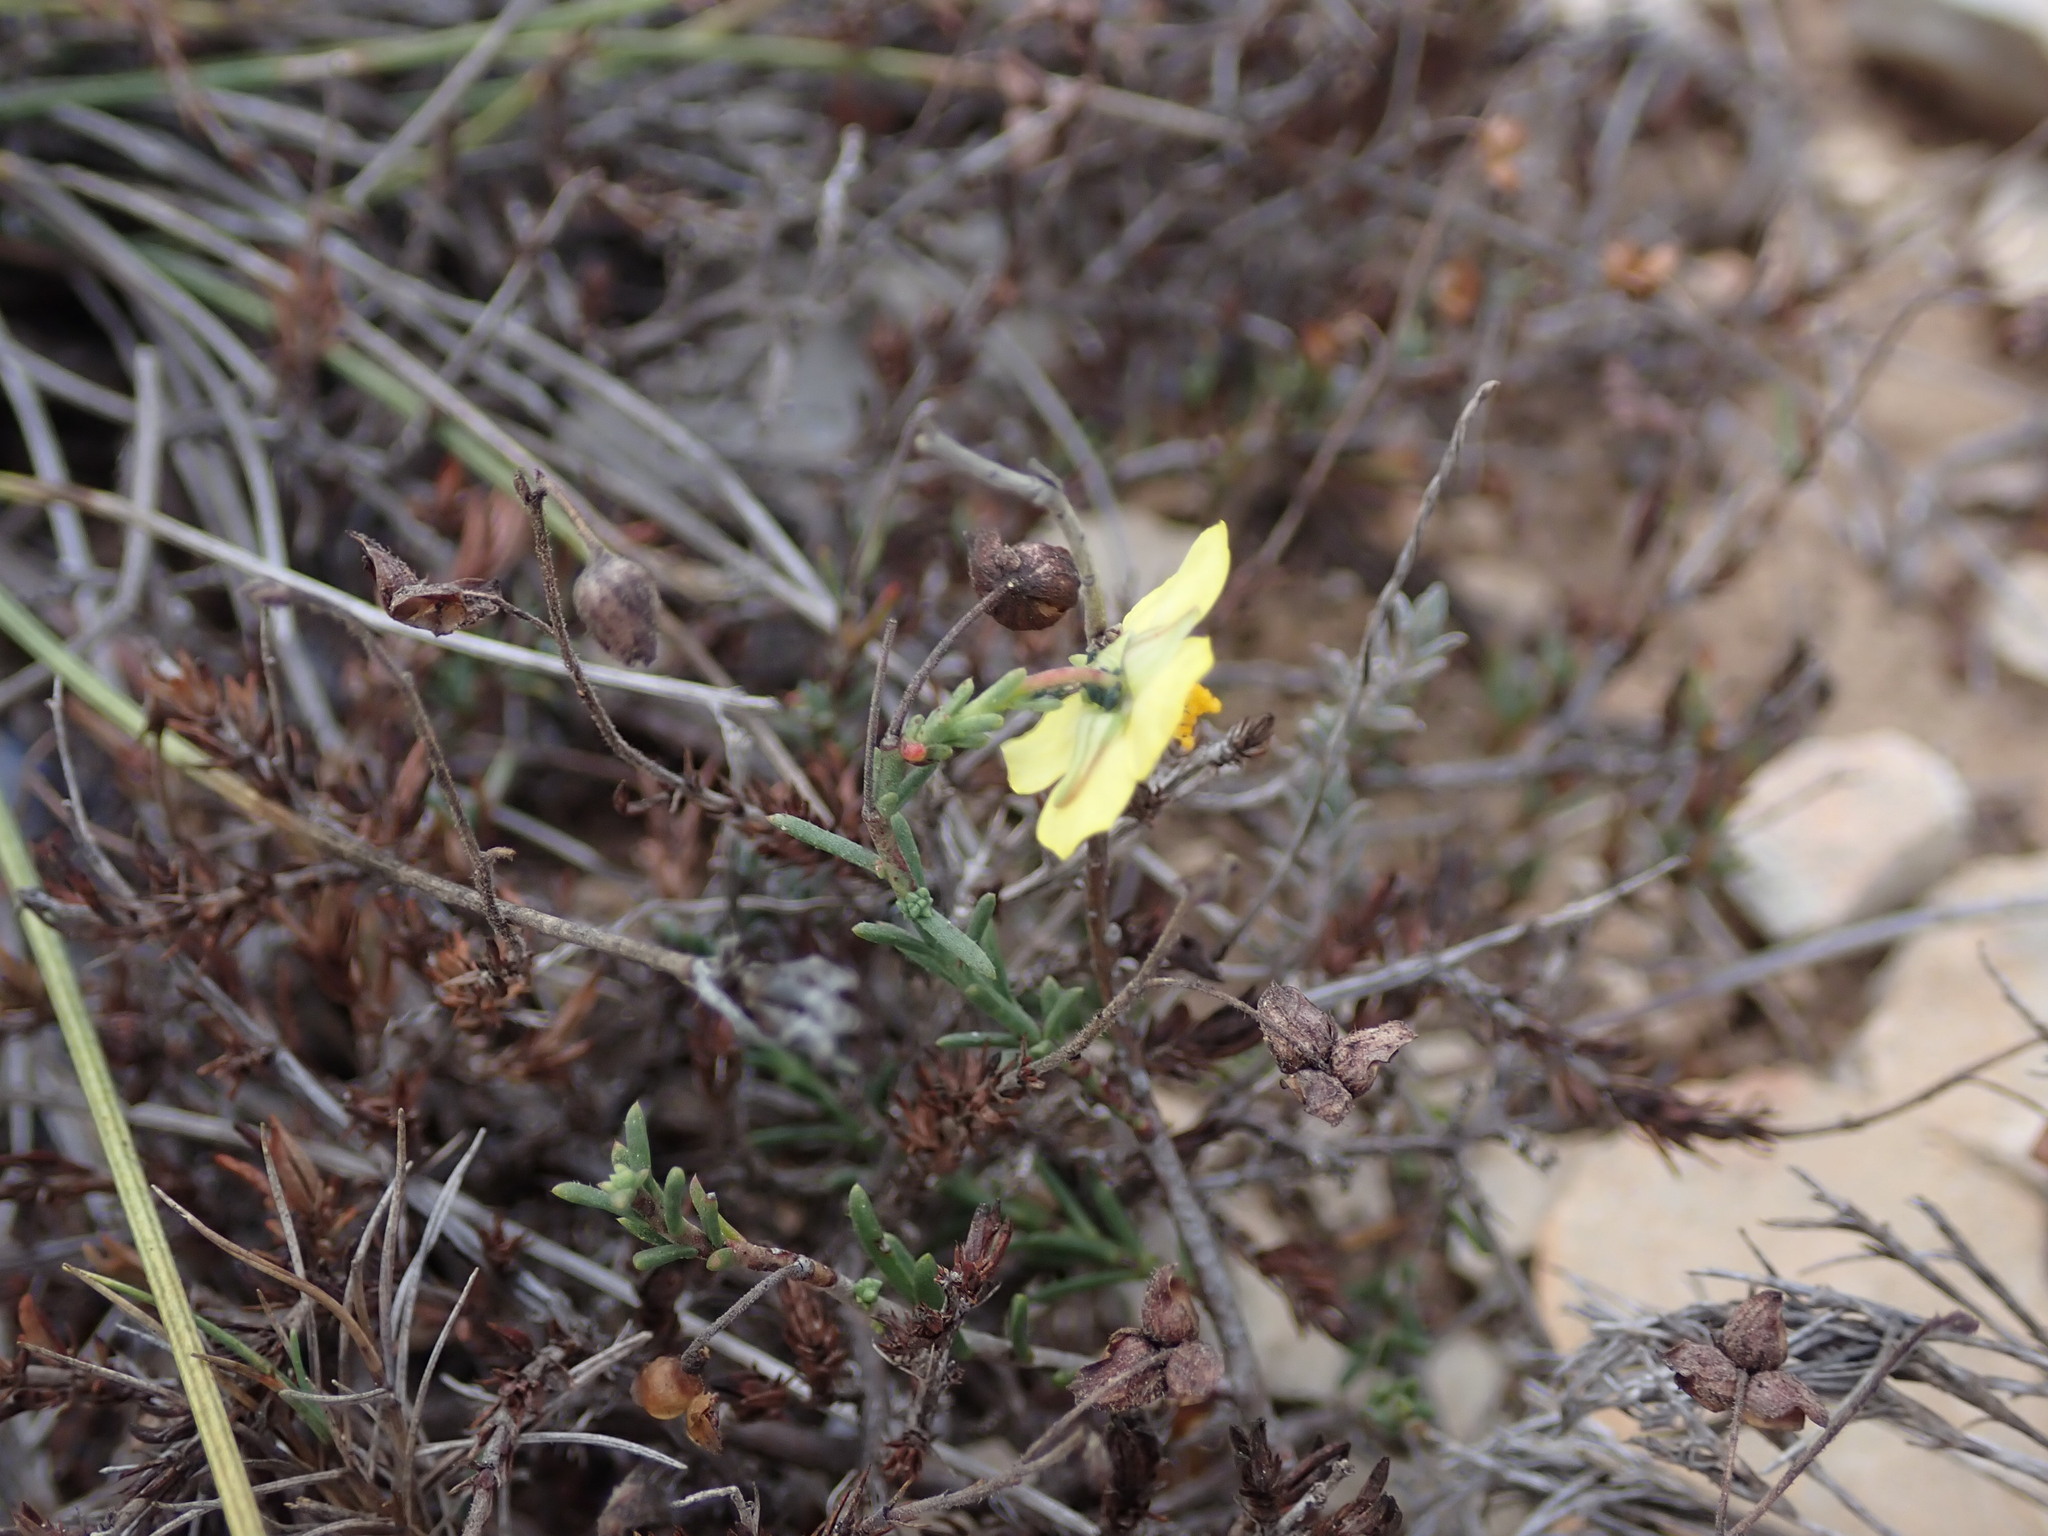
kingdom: Plantae
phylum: Tracheophyta
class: Magnoliopsida
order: Malvales
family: Cistaceae
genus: Fumana
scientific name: Fumana ericifolia
